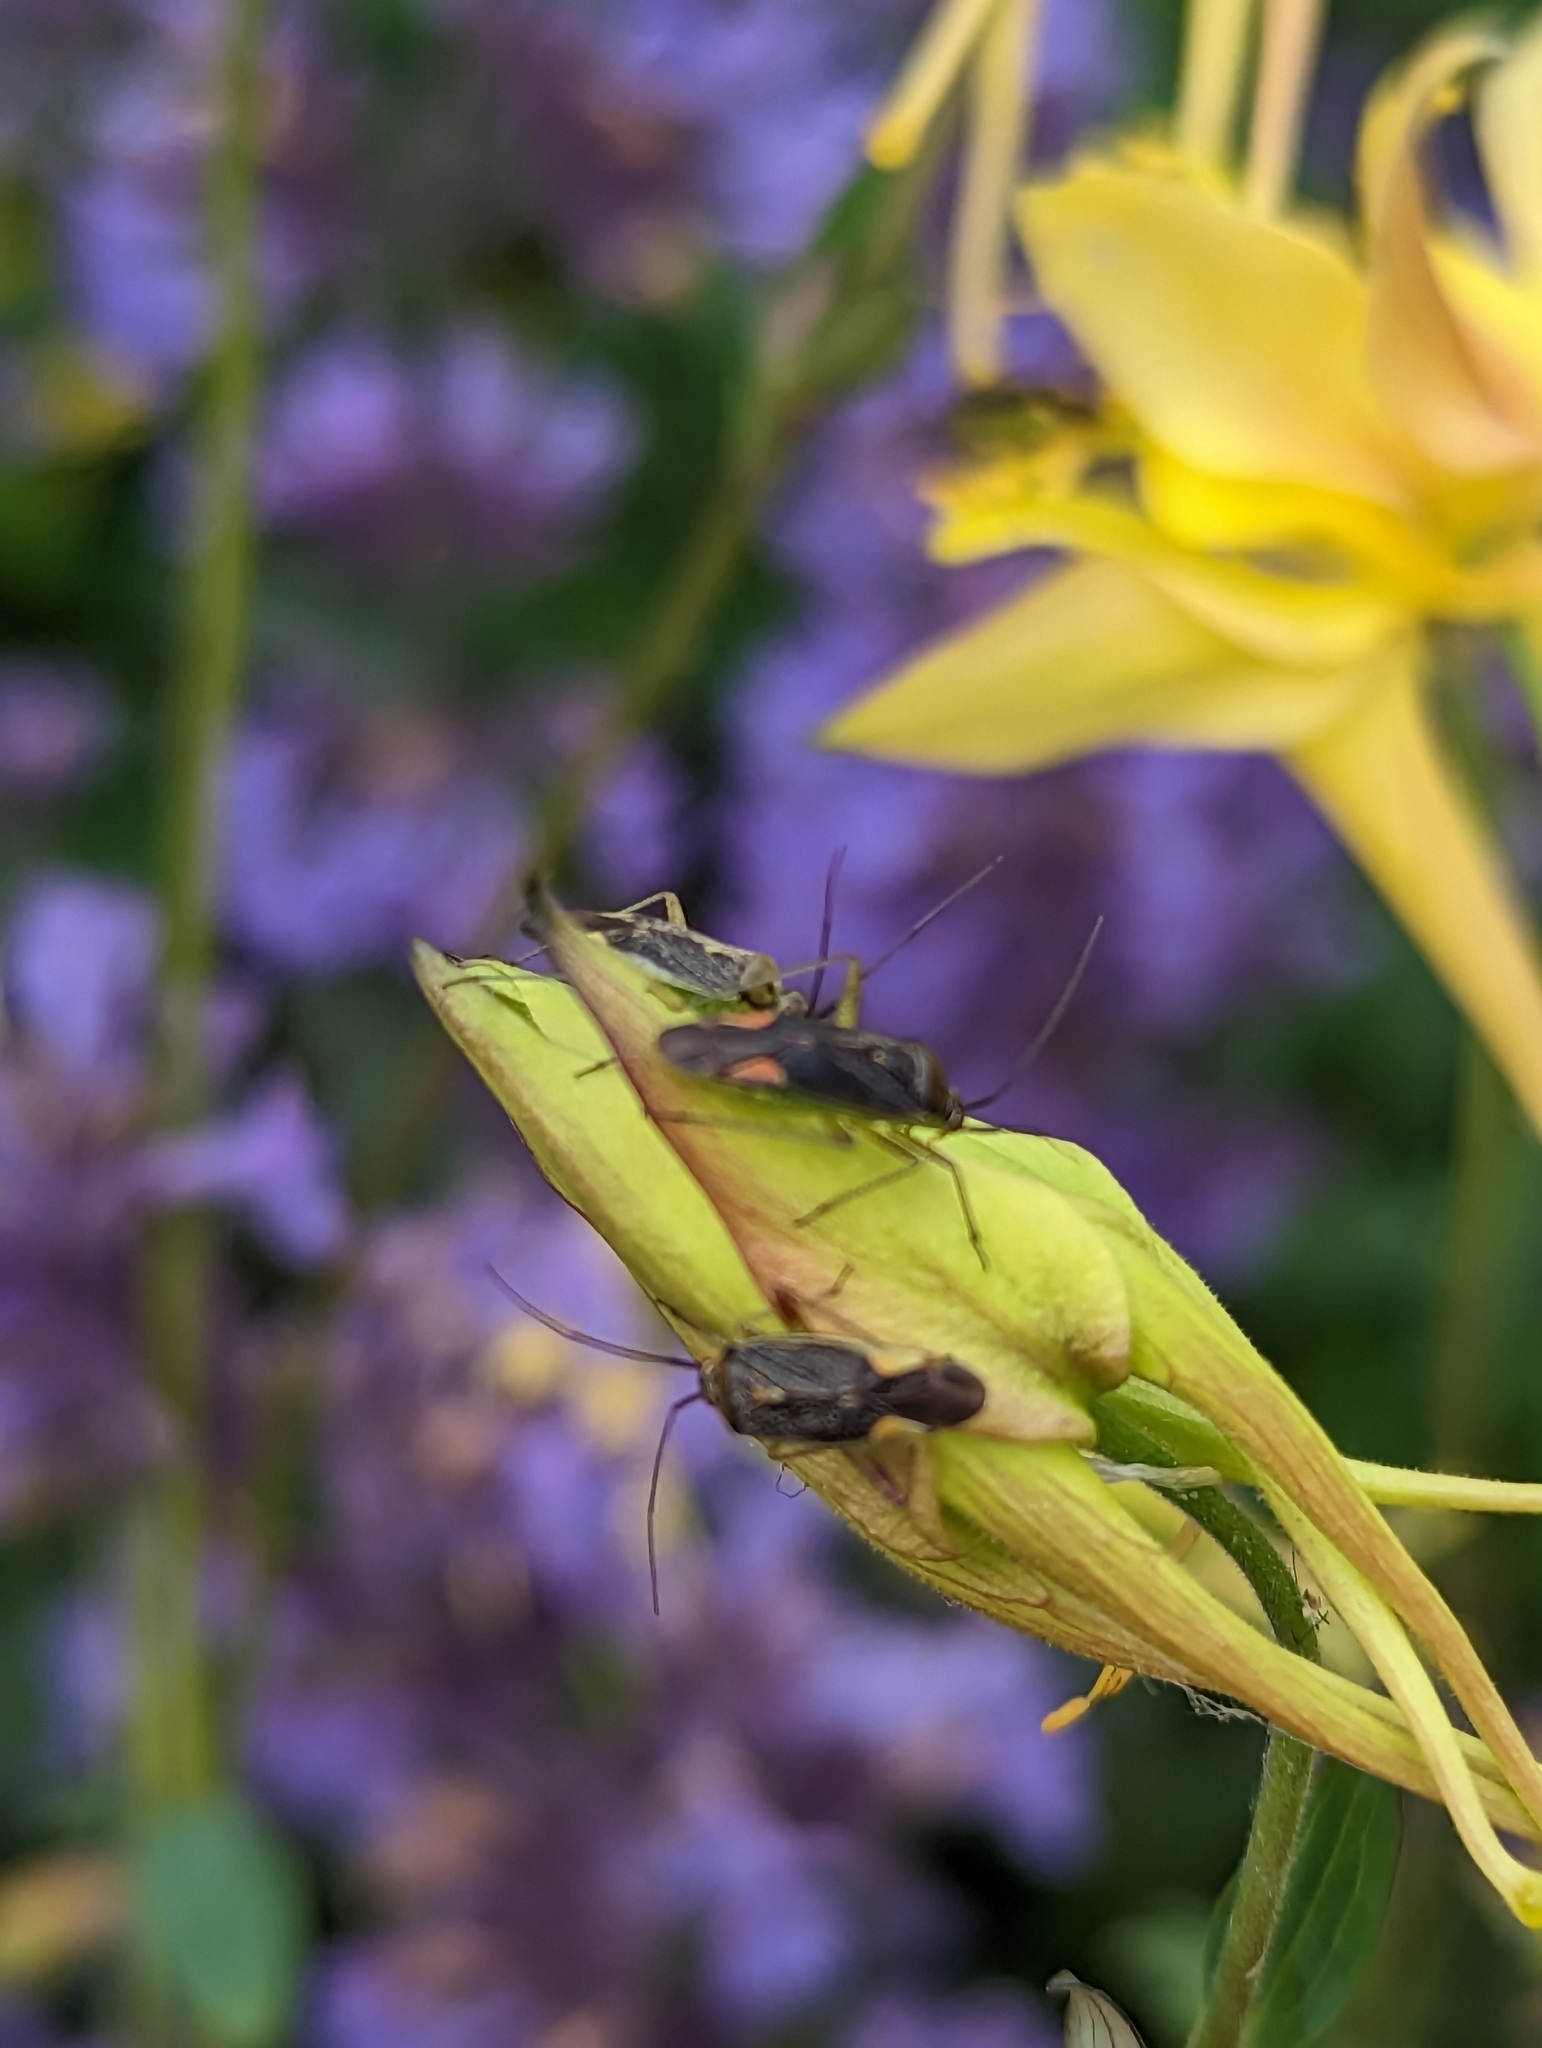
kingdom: Animalia
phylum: Arthropoda
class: Insecta
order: Hemiptera
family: Miridae
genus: Closterotomus
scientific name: Closterotomus trivialis
